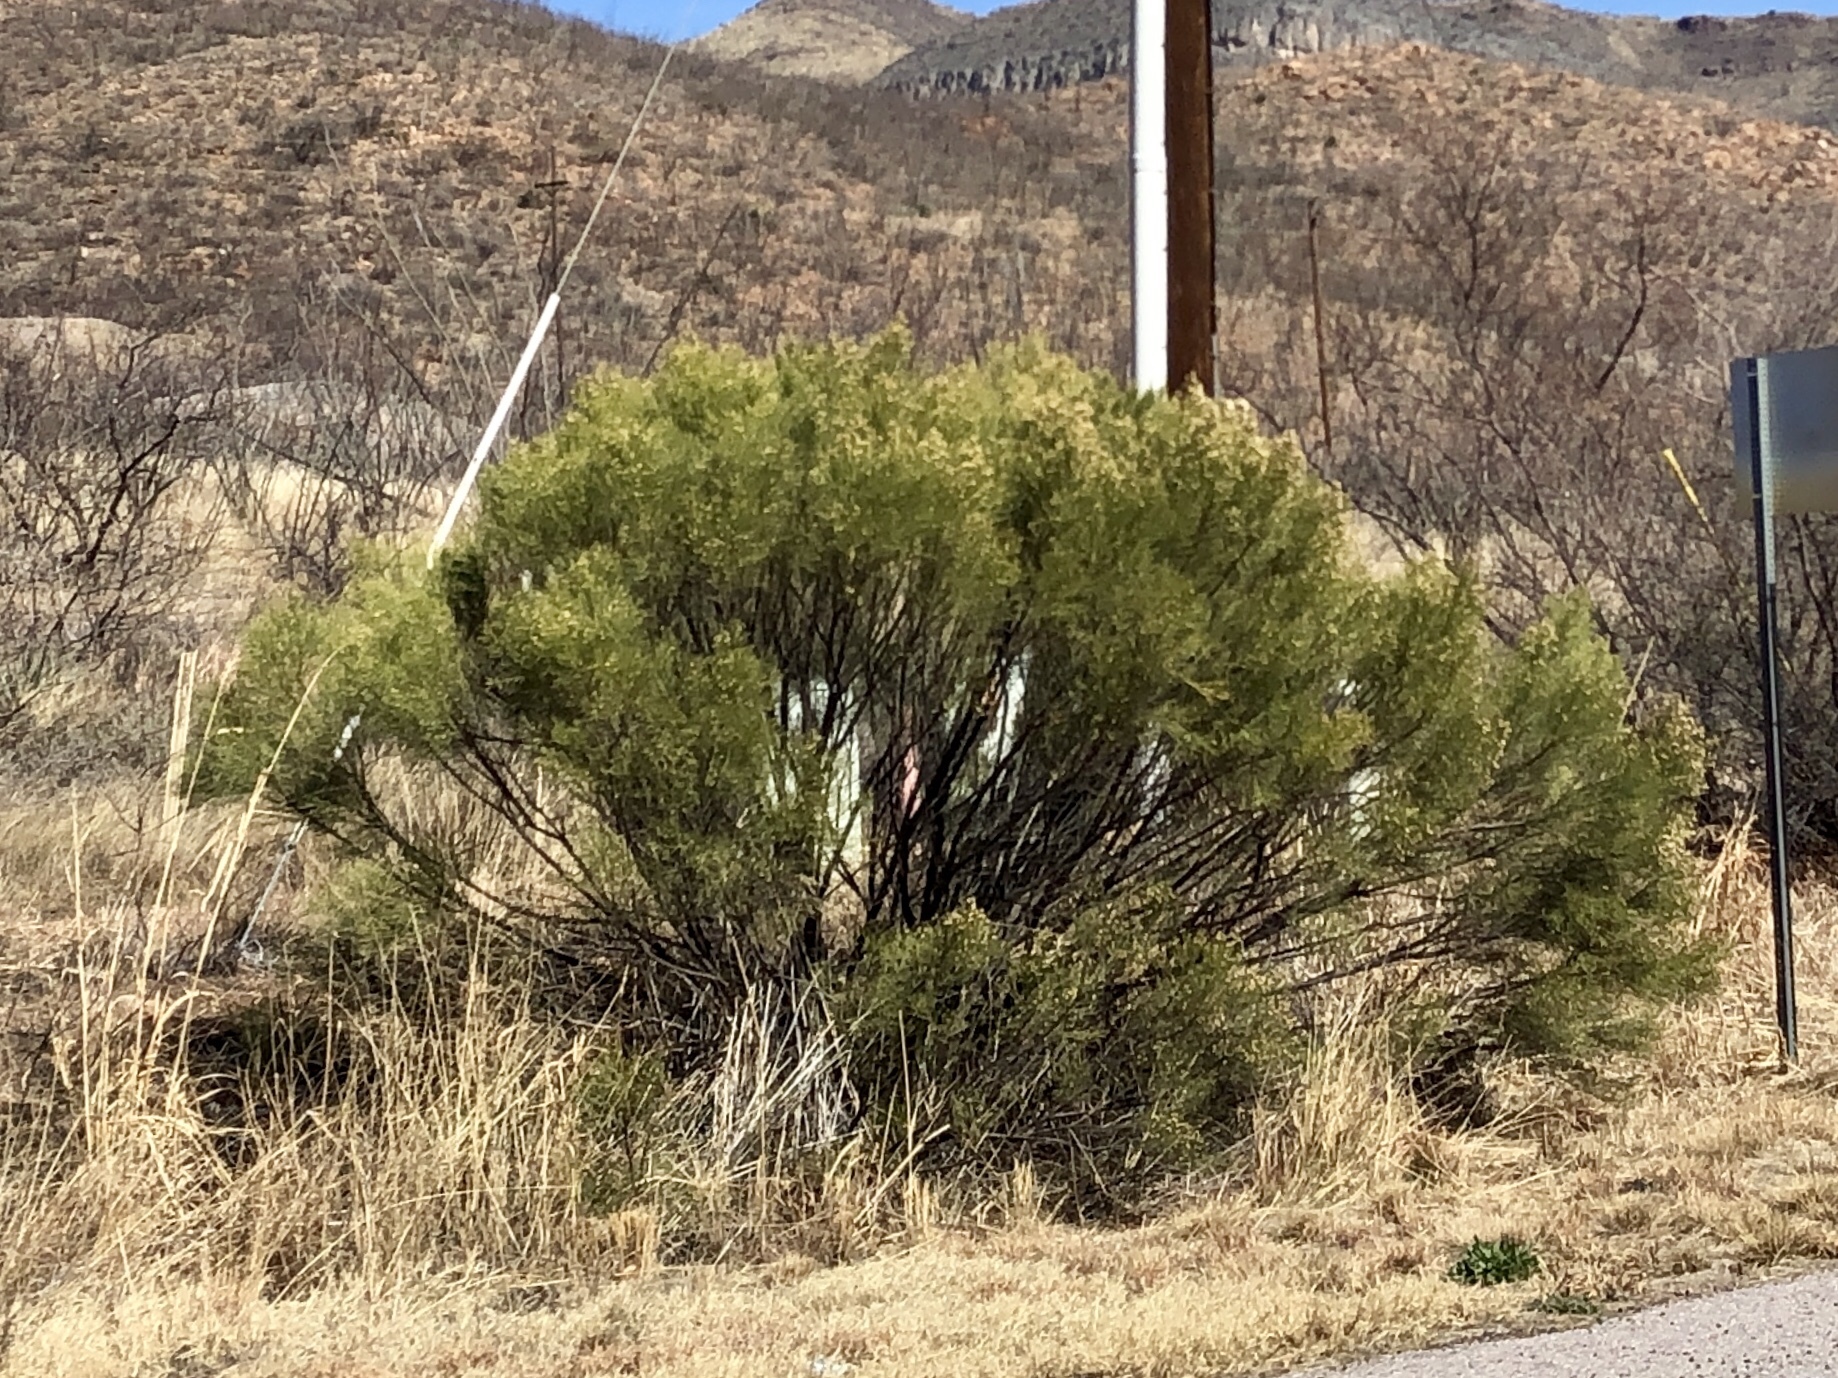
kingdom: Plantae
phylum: Tracheophyta
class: Magnoliopsida
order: Asterales
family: Asteraceae
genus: Baccharis
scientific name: Baccharis sarothroides
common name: Desert-broom
